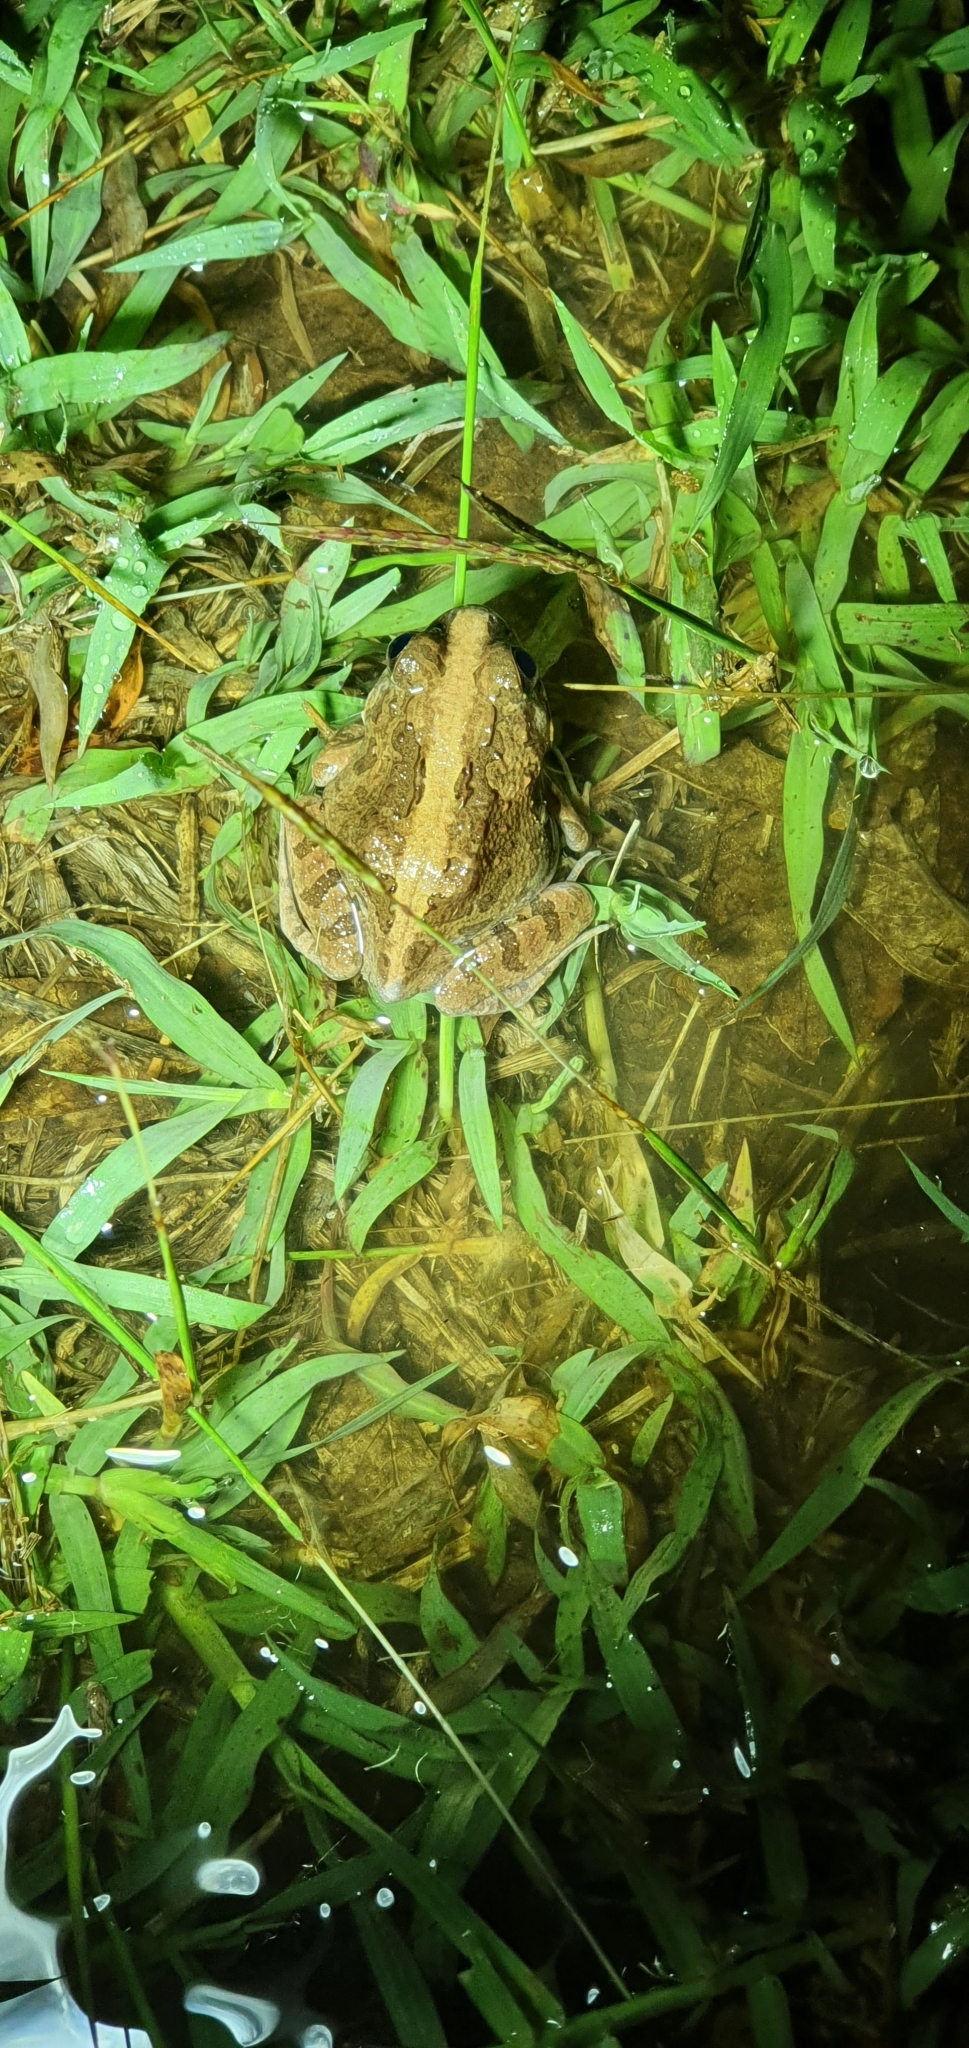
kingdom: Animalia
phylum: Chordata
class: Amphibia
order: Anura
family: Limnodynastidae
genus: Platyplectrum
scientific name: Platyplectrum ornatum
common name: Ornate burrowing frog
